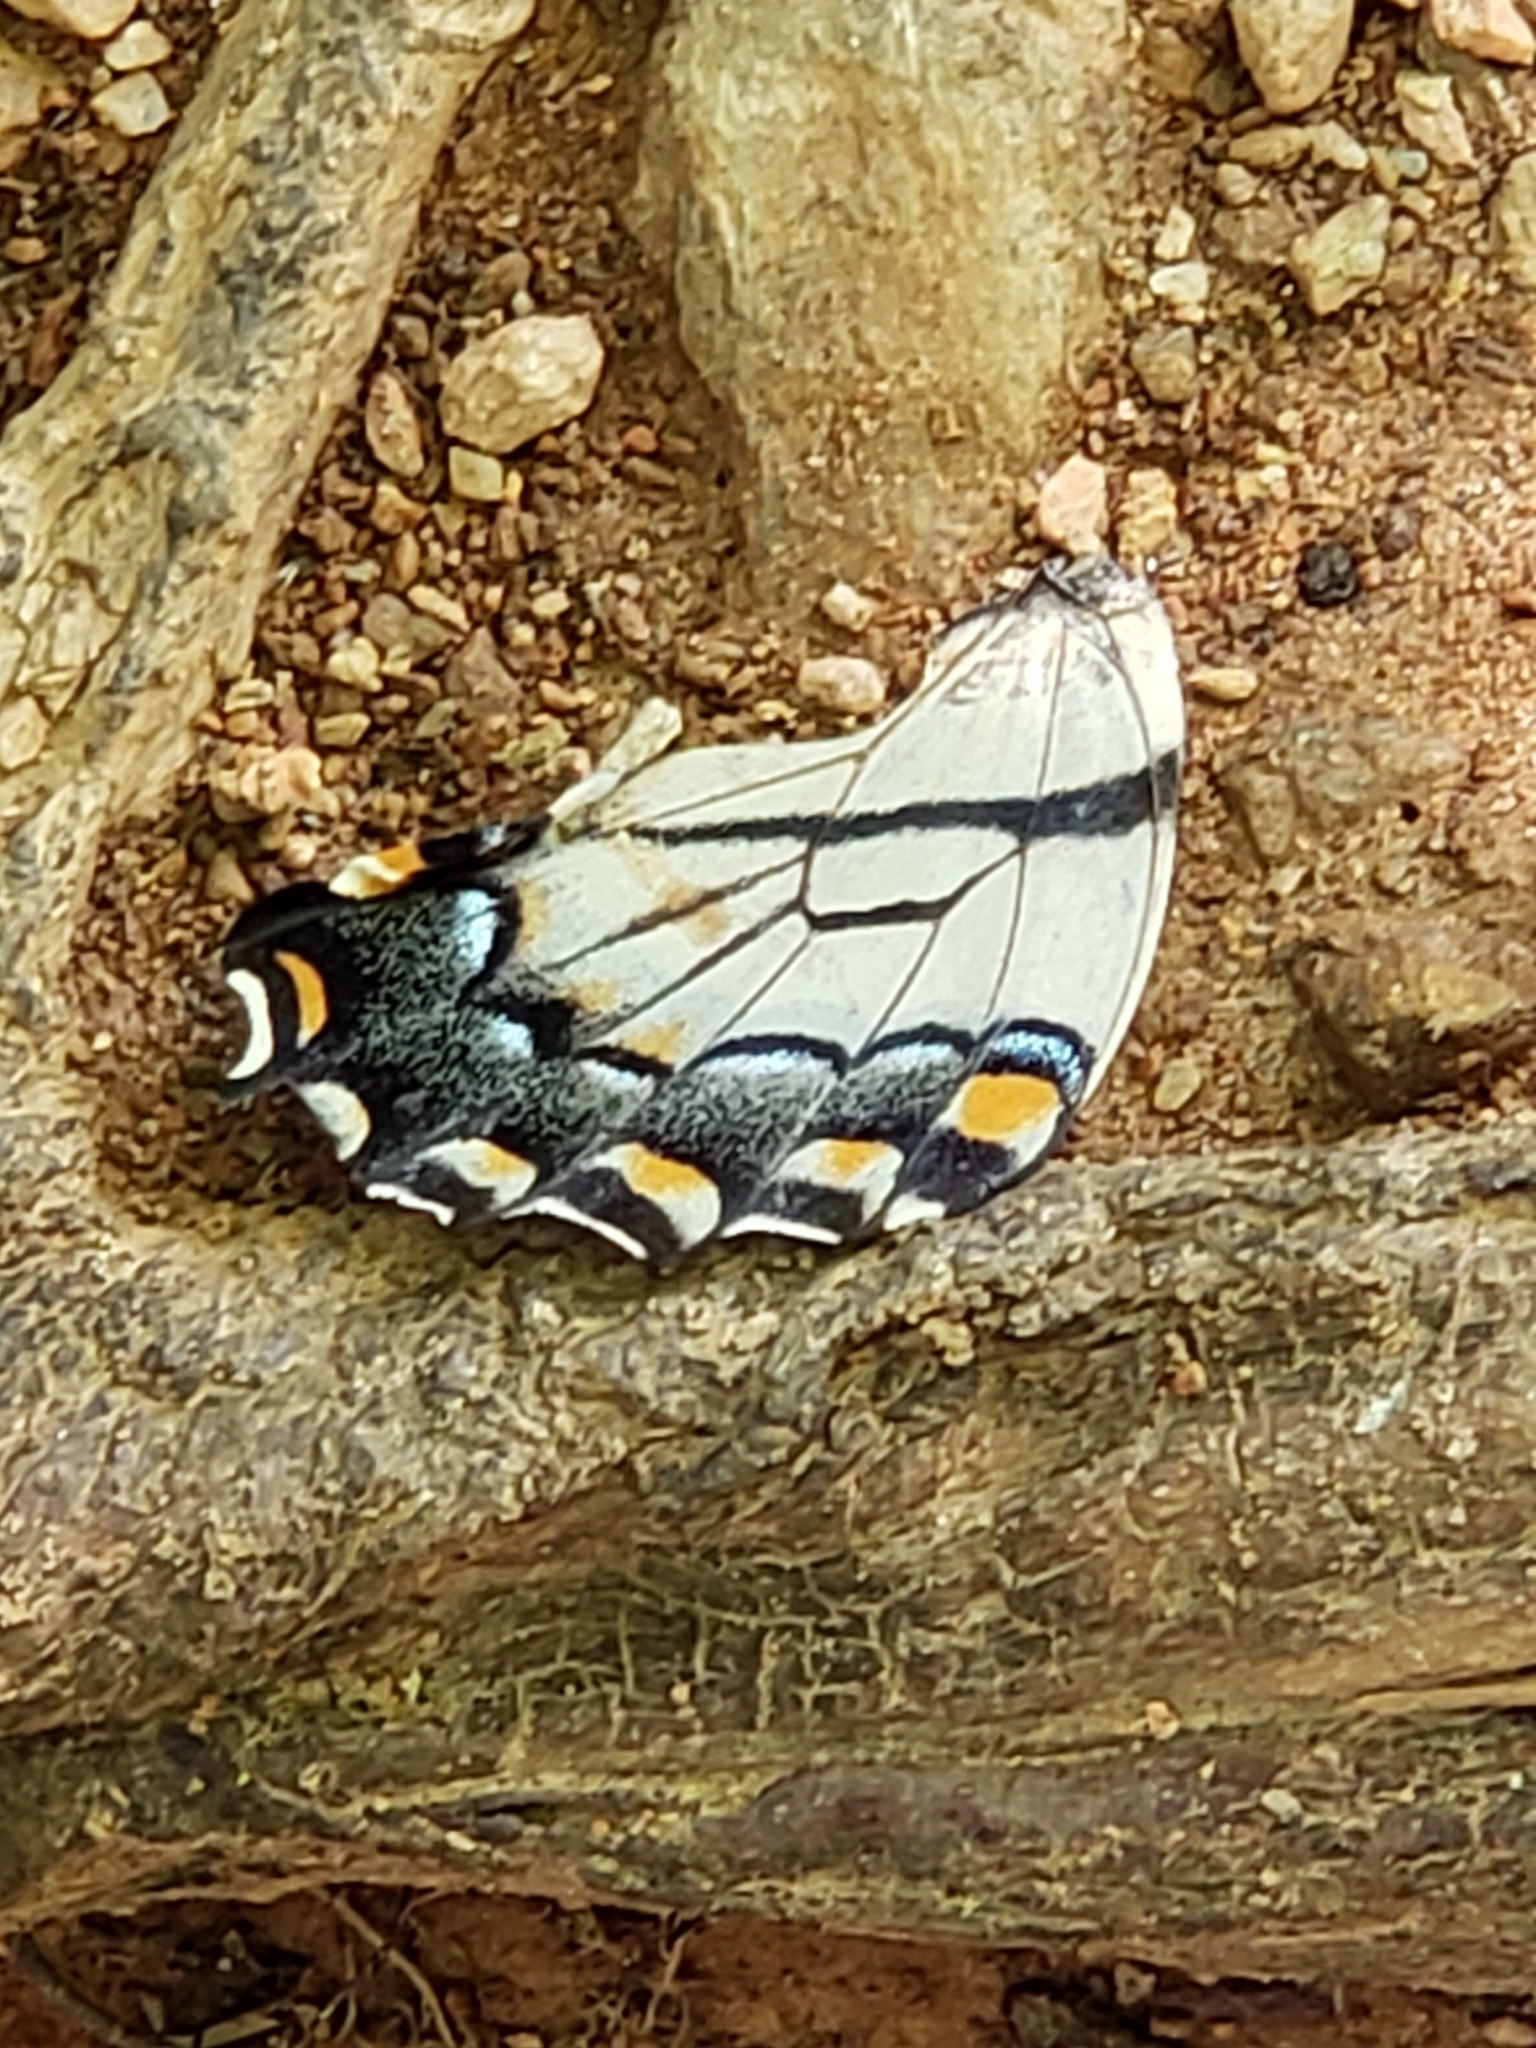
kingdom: Animalia
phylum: Arthropoda
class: Insecta
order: Lepidoptera
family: Papilionidae
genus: Papilio
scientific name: Papilio glaucus
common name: Tiger swallowtail
